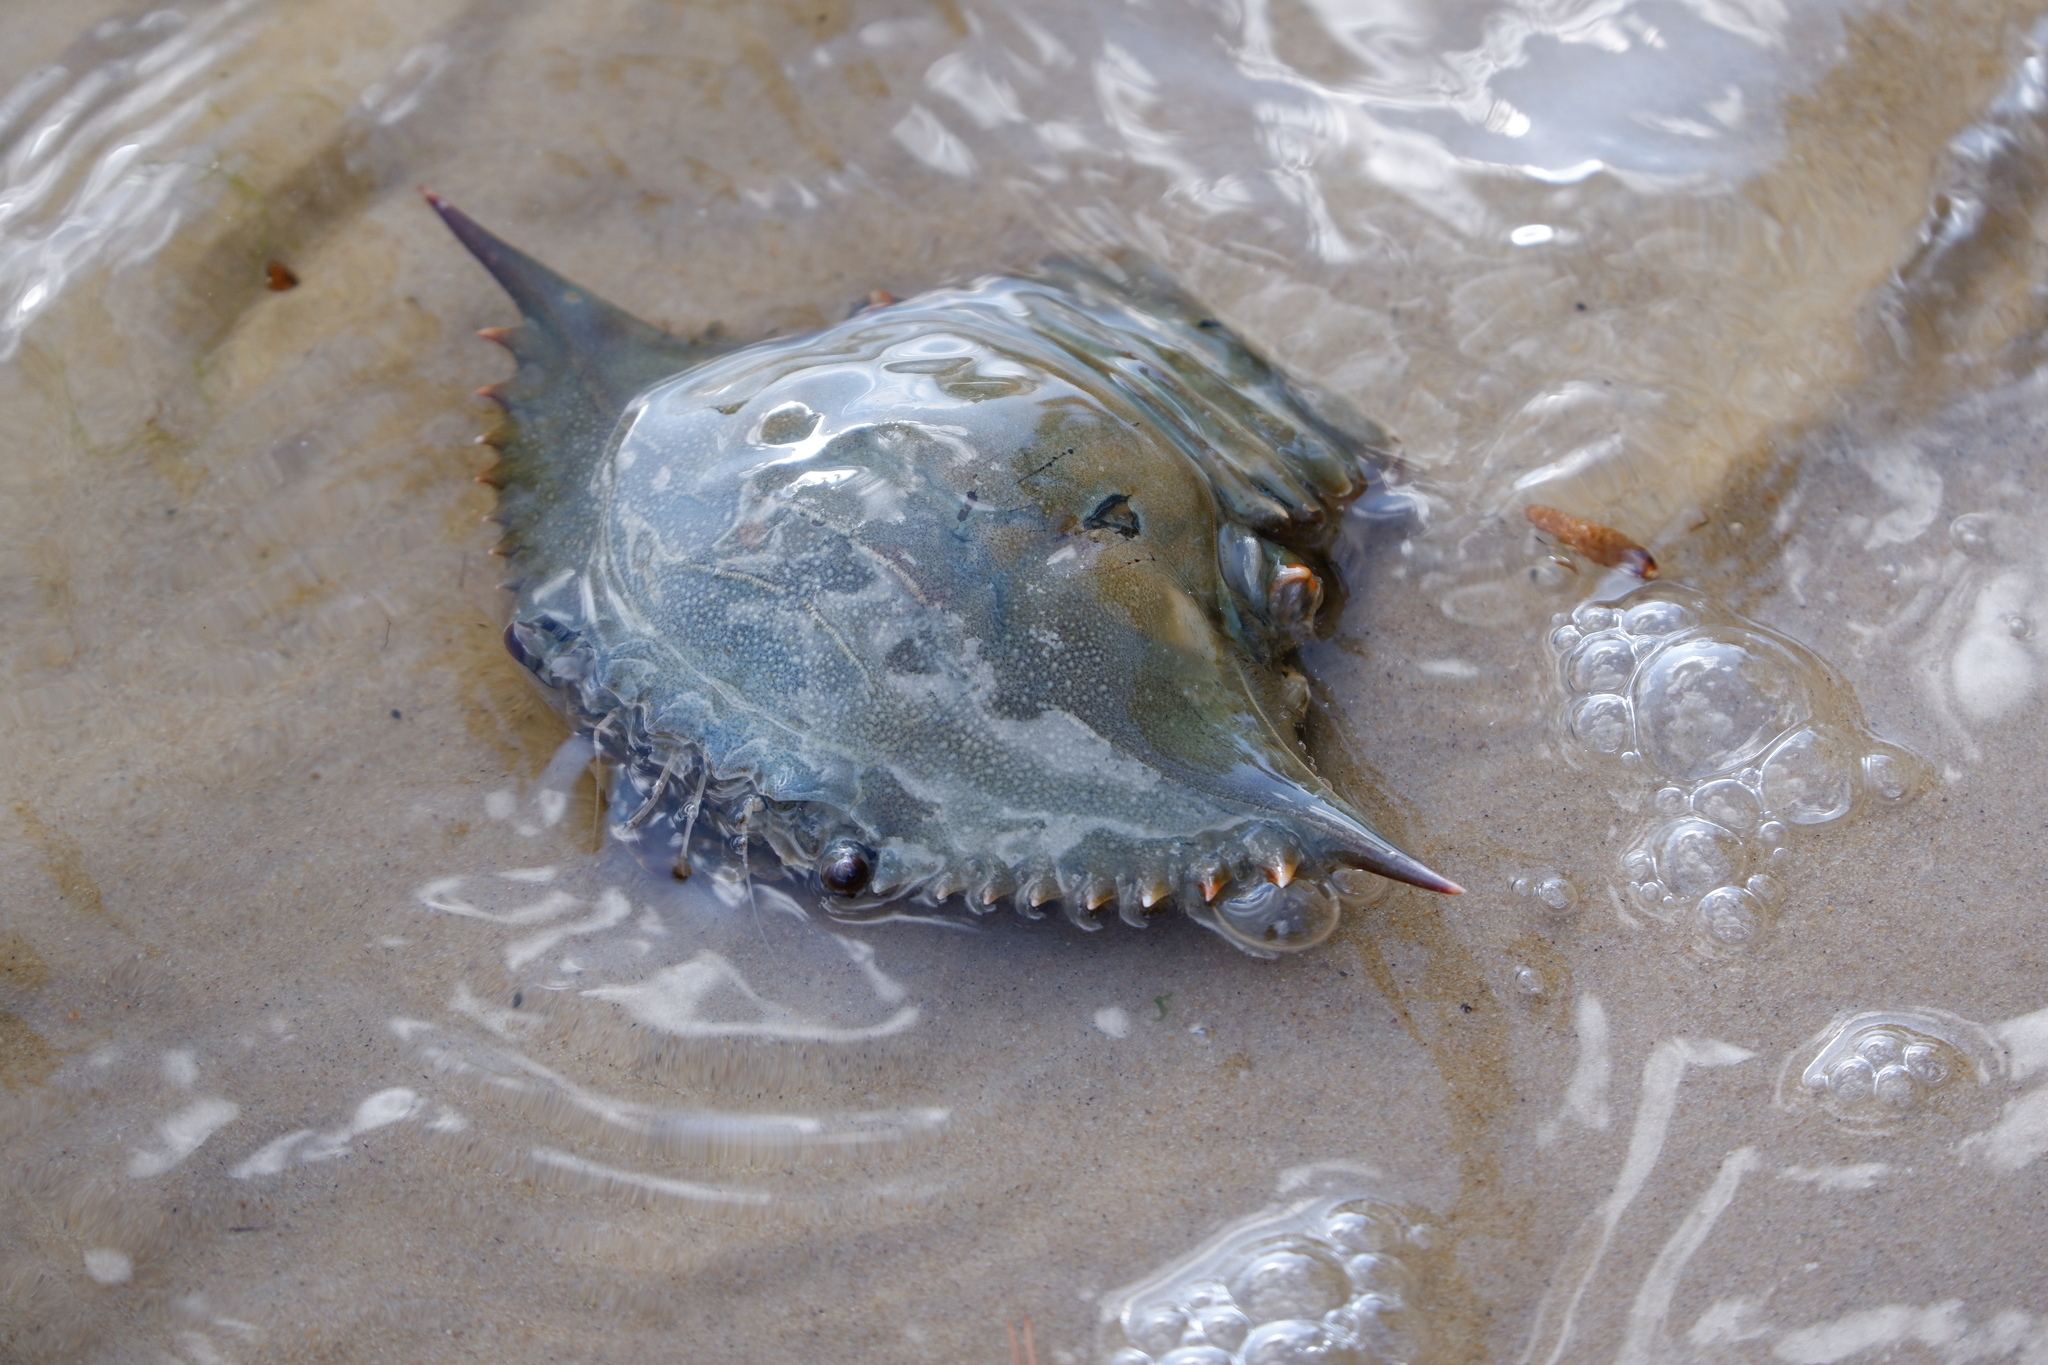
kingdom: Animalia
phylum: Arthropoda
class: Malacostraca
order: Decapoda
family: Portunidae
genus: Callinectes
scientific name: Callinectes sapidus
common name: Blue crab
